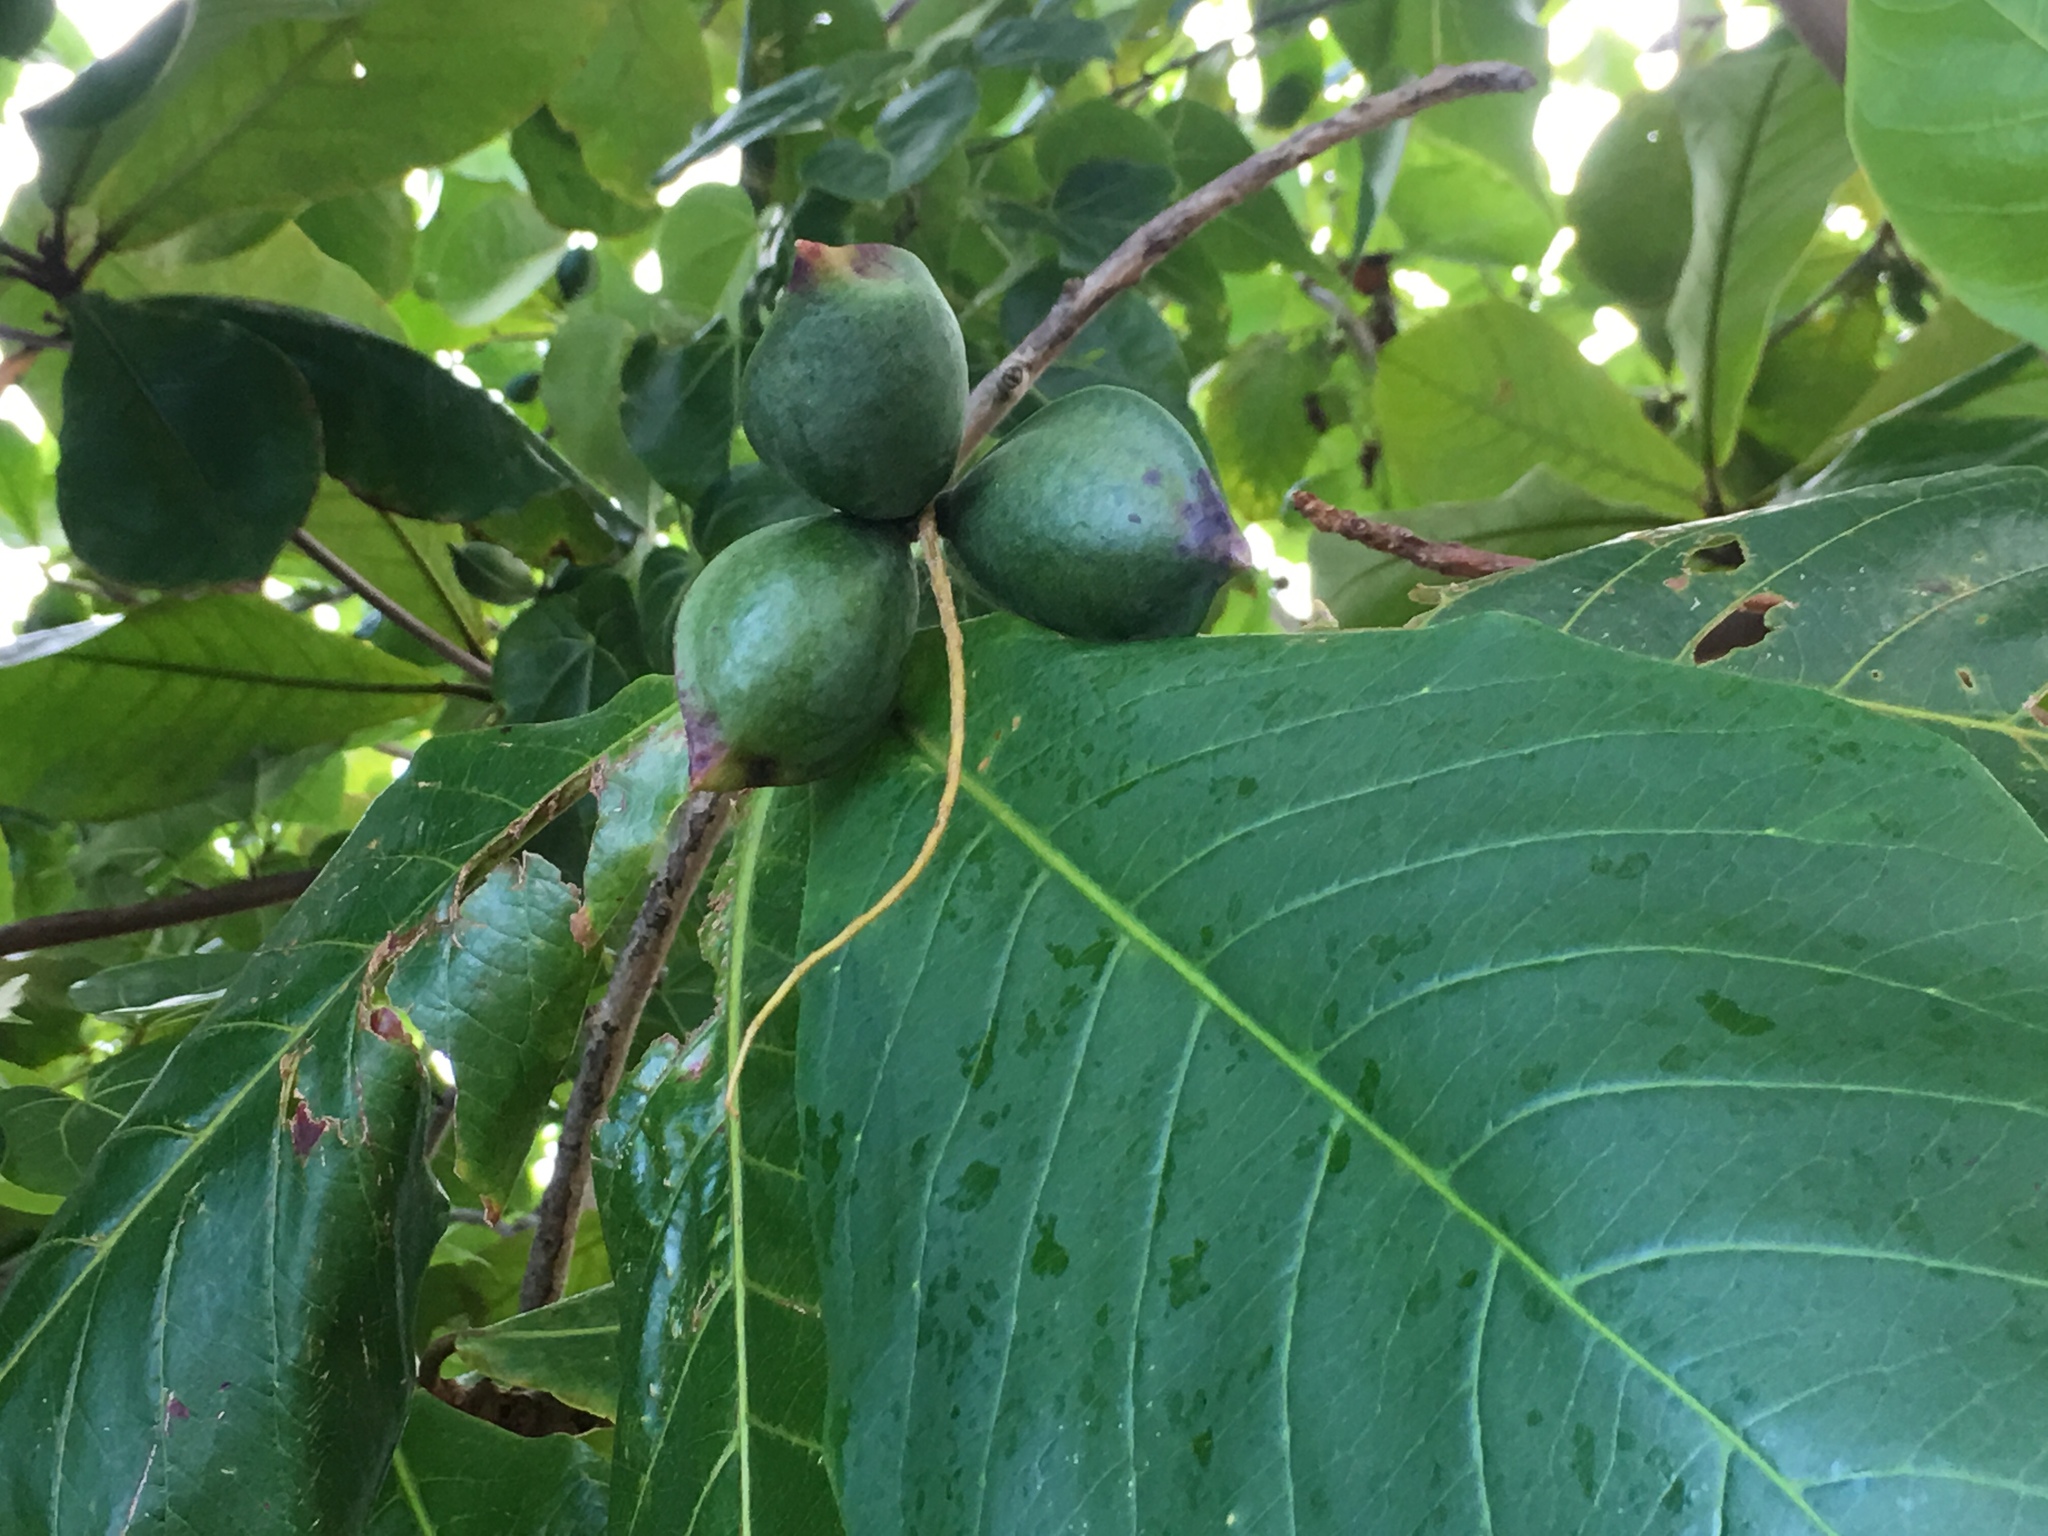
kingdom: Plantae
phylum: Tracheophyta
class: Magnoliopsida
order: Myrtales
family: Combretaceae
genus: Terminalia
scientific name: Terminalia catappa
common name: Tropical almond
